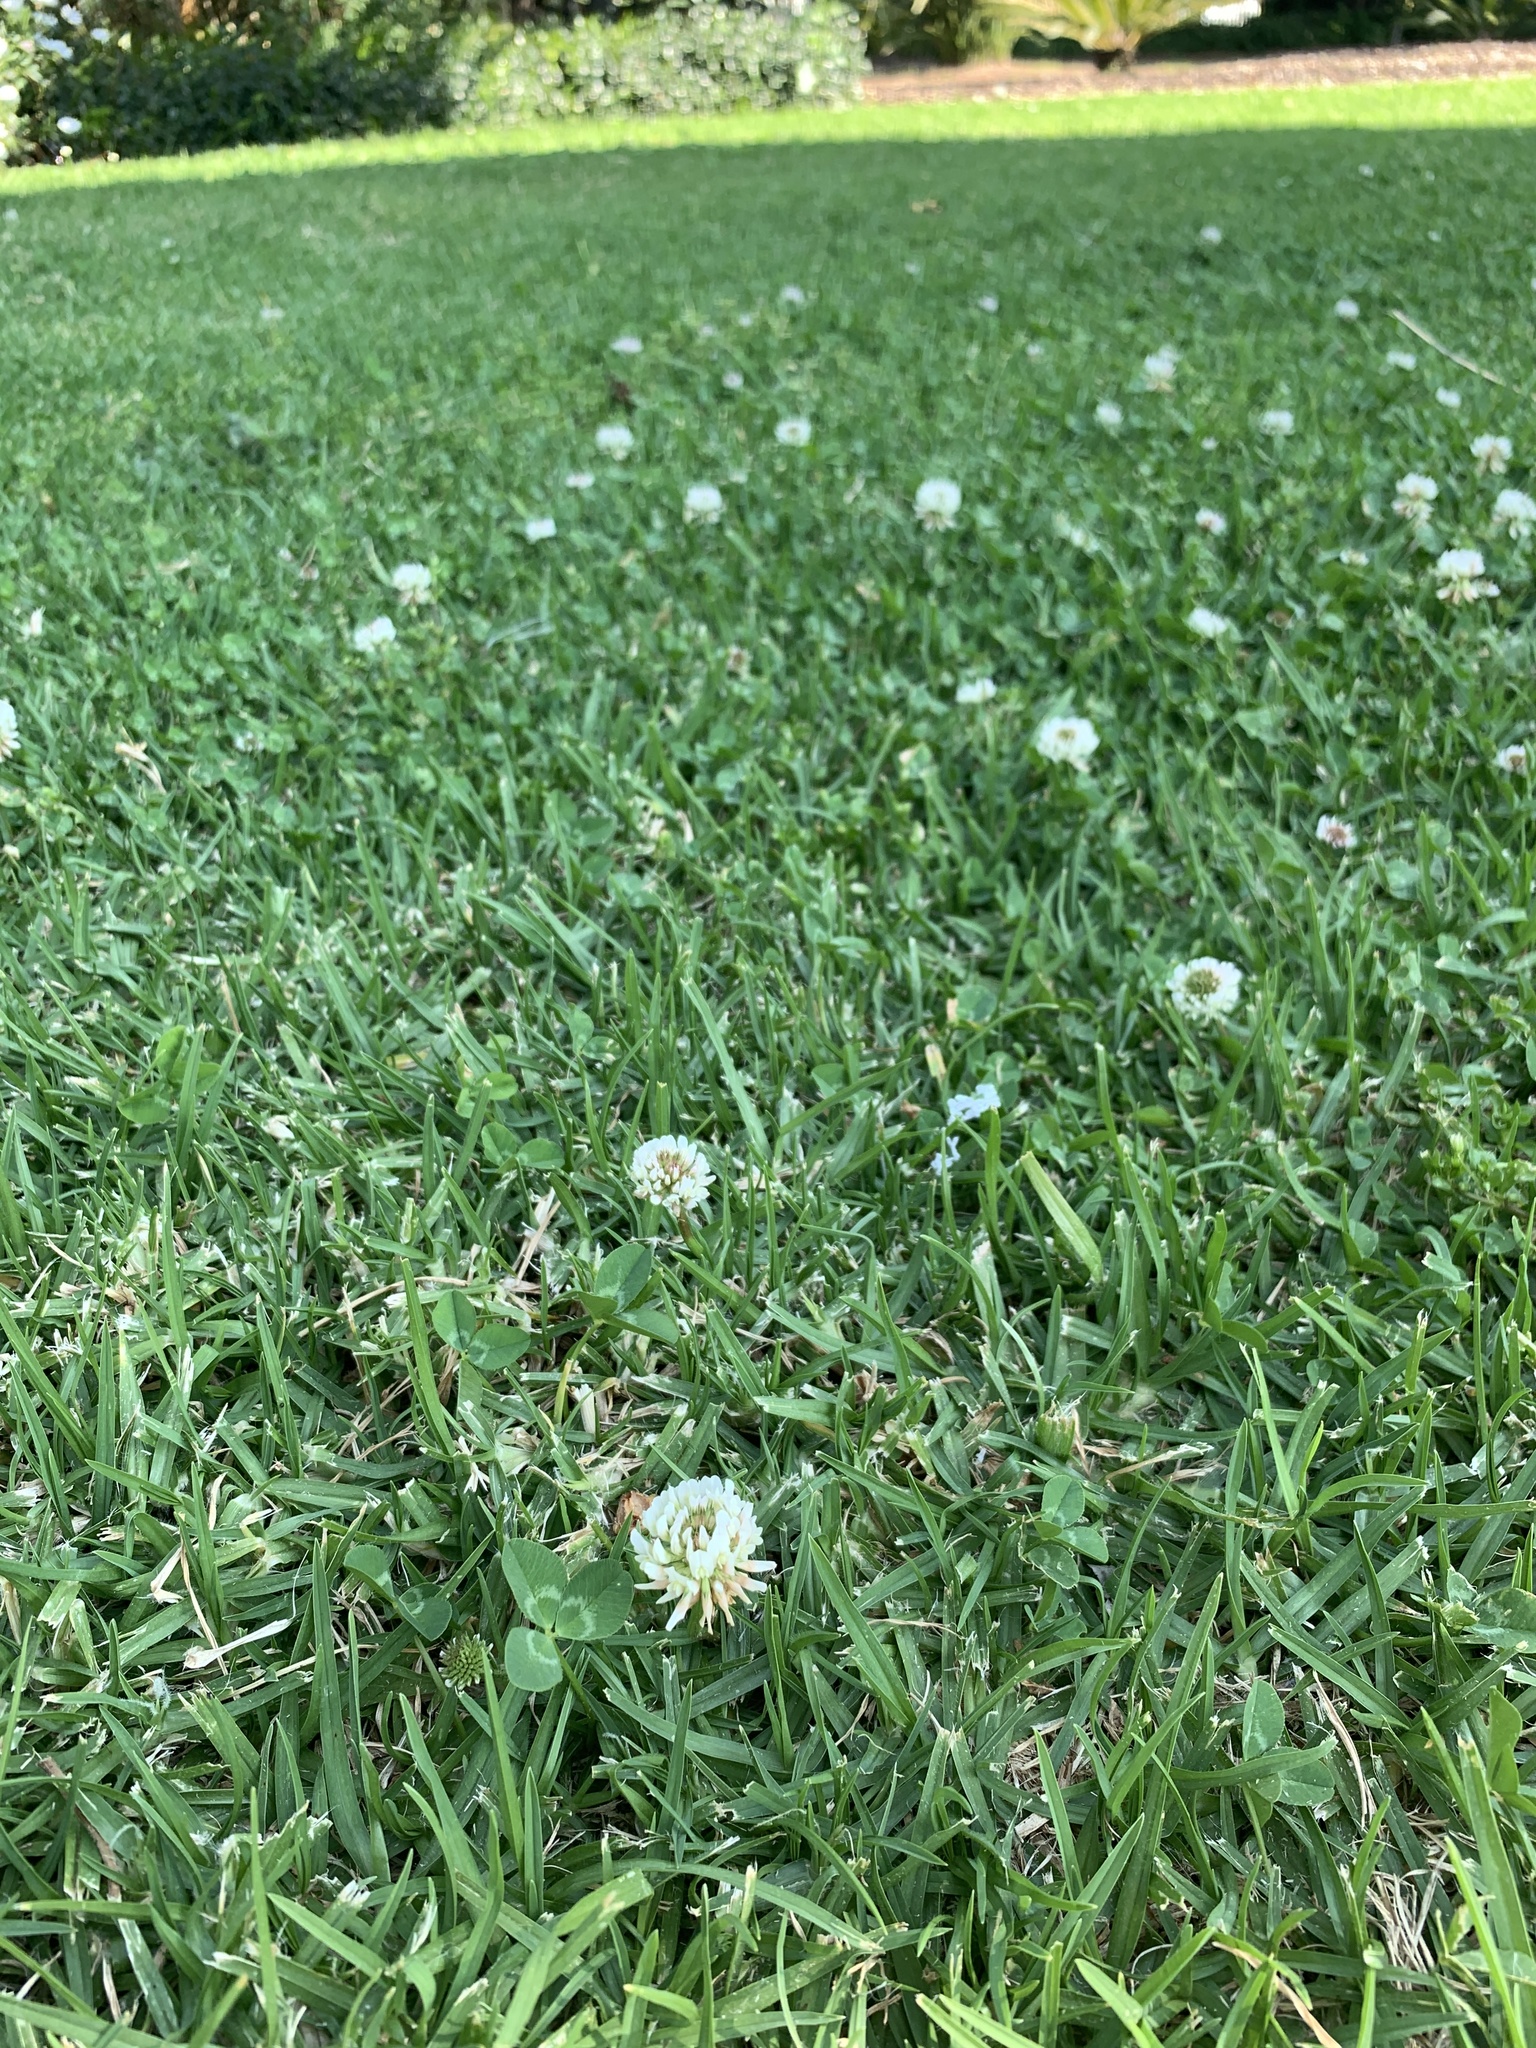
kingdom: Plantae
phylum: Tracheophyta
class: Magnoliopsida
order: Fabales
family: Fabaceae
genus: Trifolium
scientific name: Trifolium repens
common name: White clover
